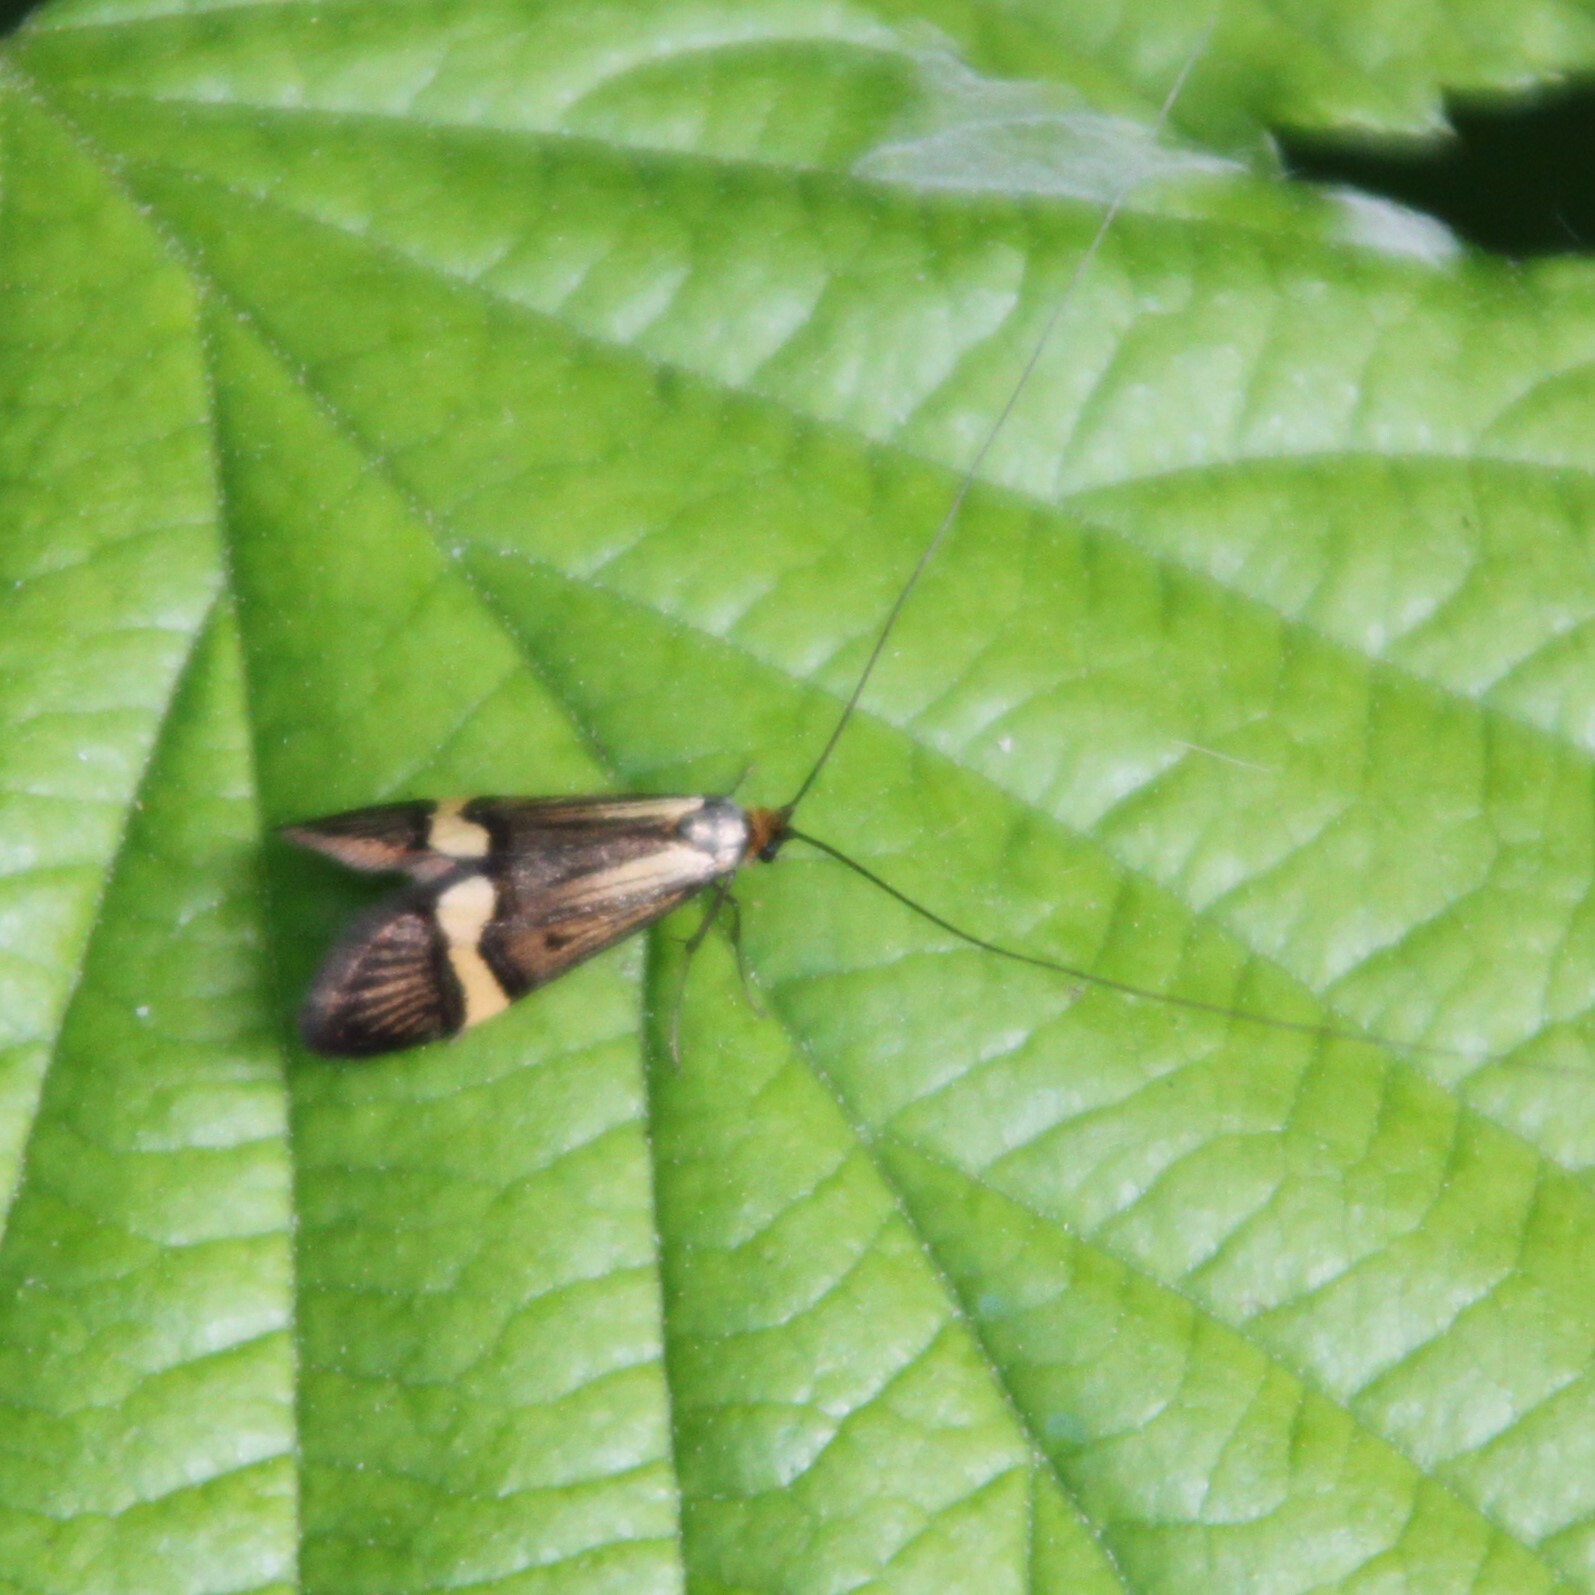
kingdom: Animalia
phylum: Arthropoda
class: Insecta
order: Lepidoptera
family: Adelidae
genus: Nemophora
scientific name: Nemophora degeerella
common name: Yellow-barred long-horn
